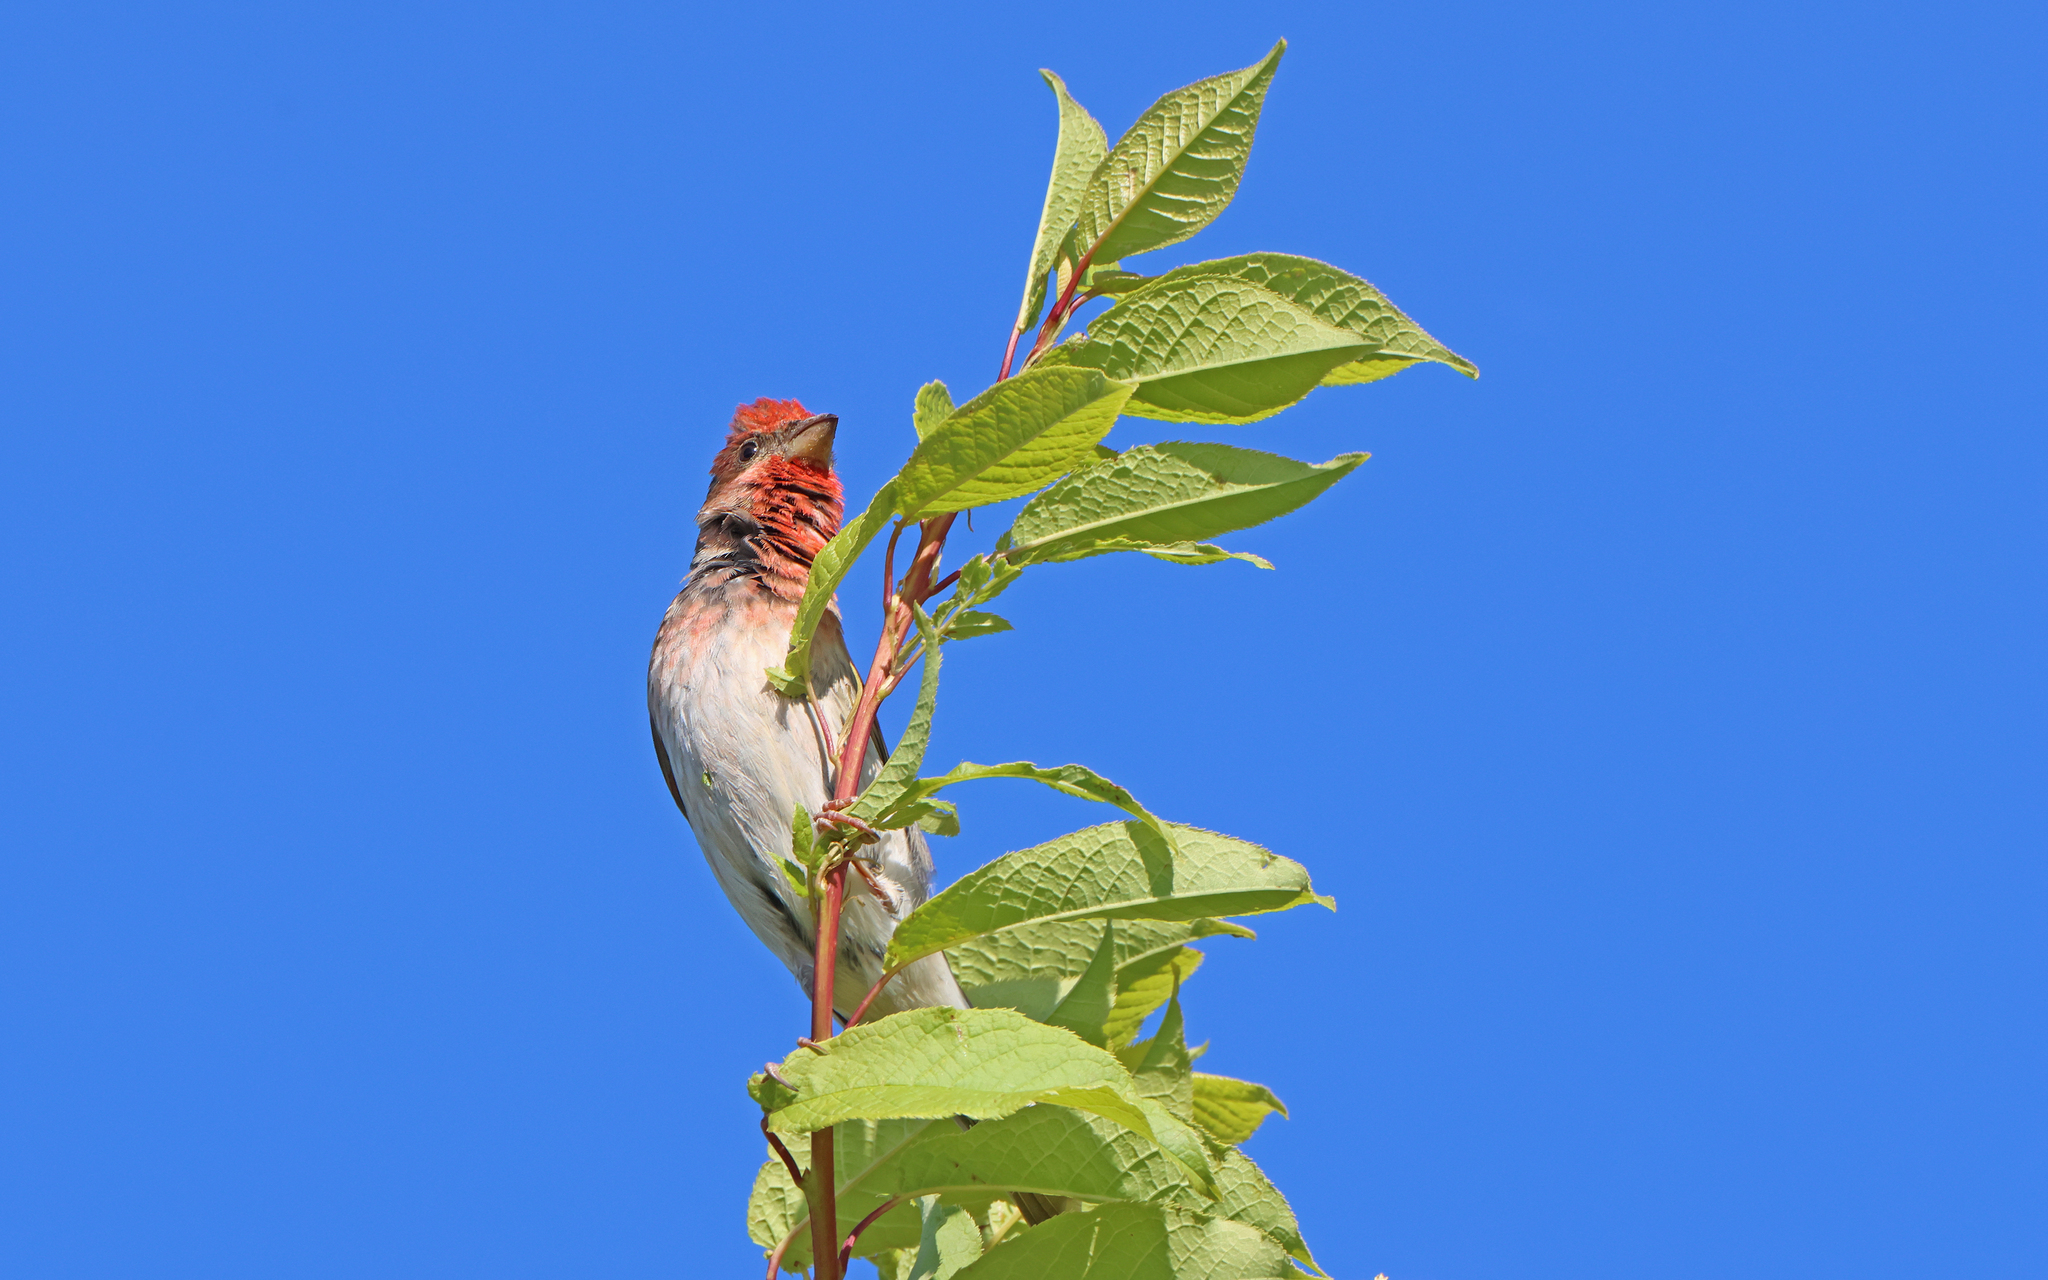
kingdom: Animalia
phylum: Chordata
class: Aves
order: Passeriformes
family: Fringillidae
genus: Carpodacus
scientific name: Carpodacus erythrinus
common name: Common rosefinch
